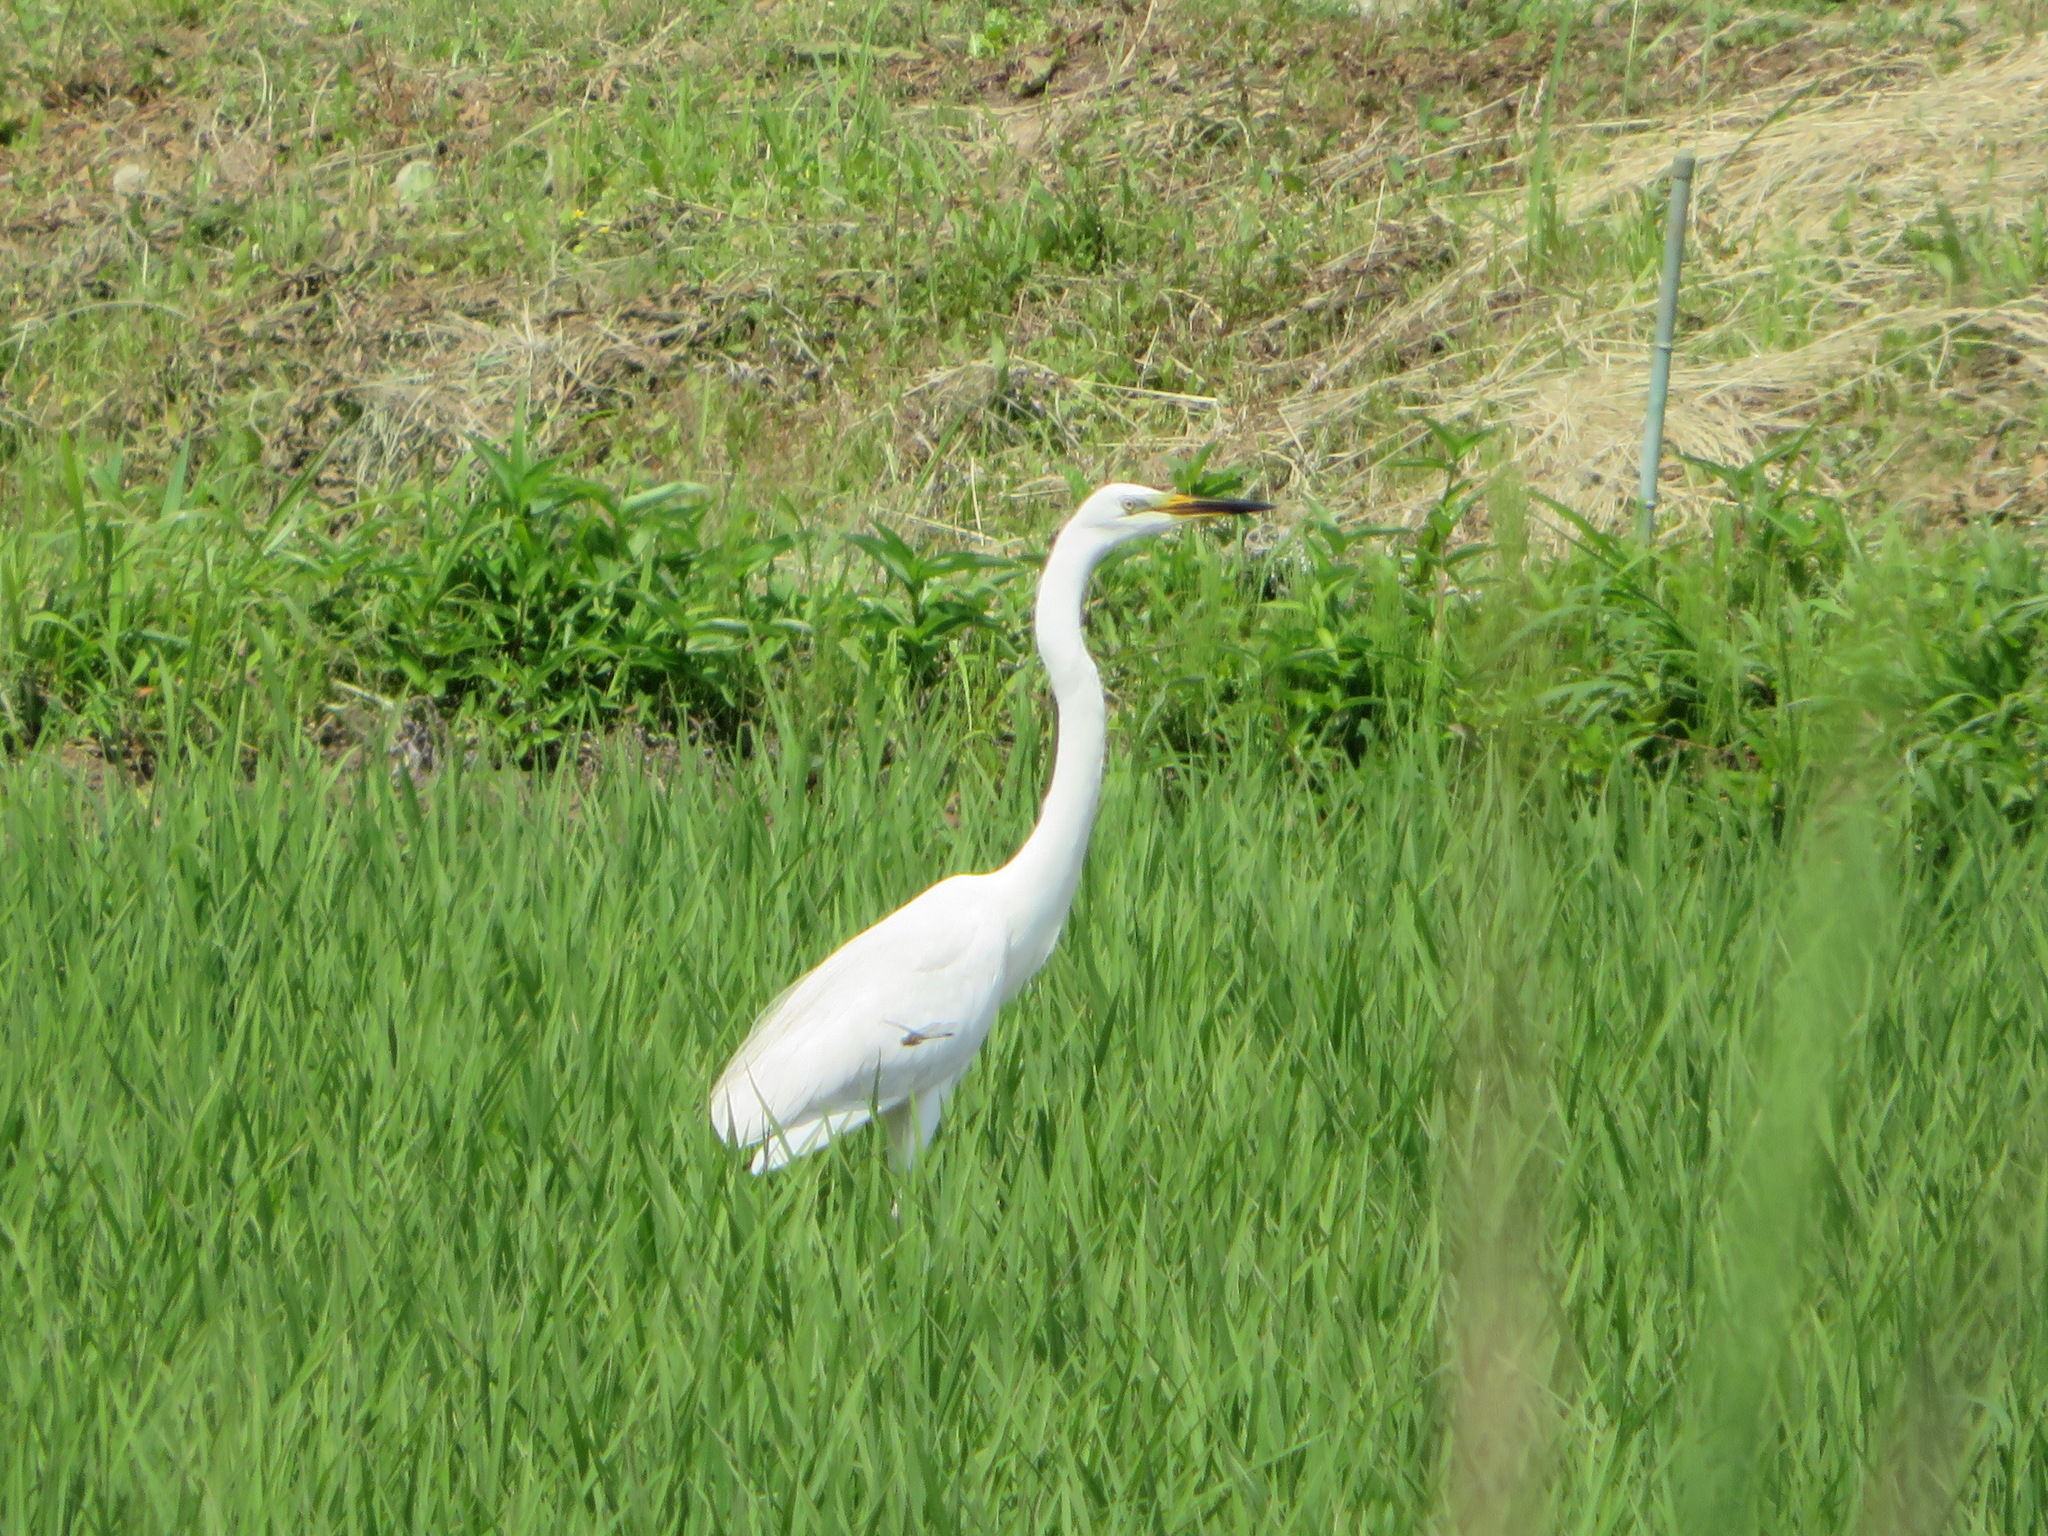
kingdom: Animalia
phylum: Chordata
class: Aves
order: Pelecaniformes
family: Ardeidae
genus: Ardea
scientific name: Ardea modesta
